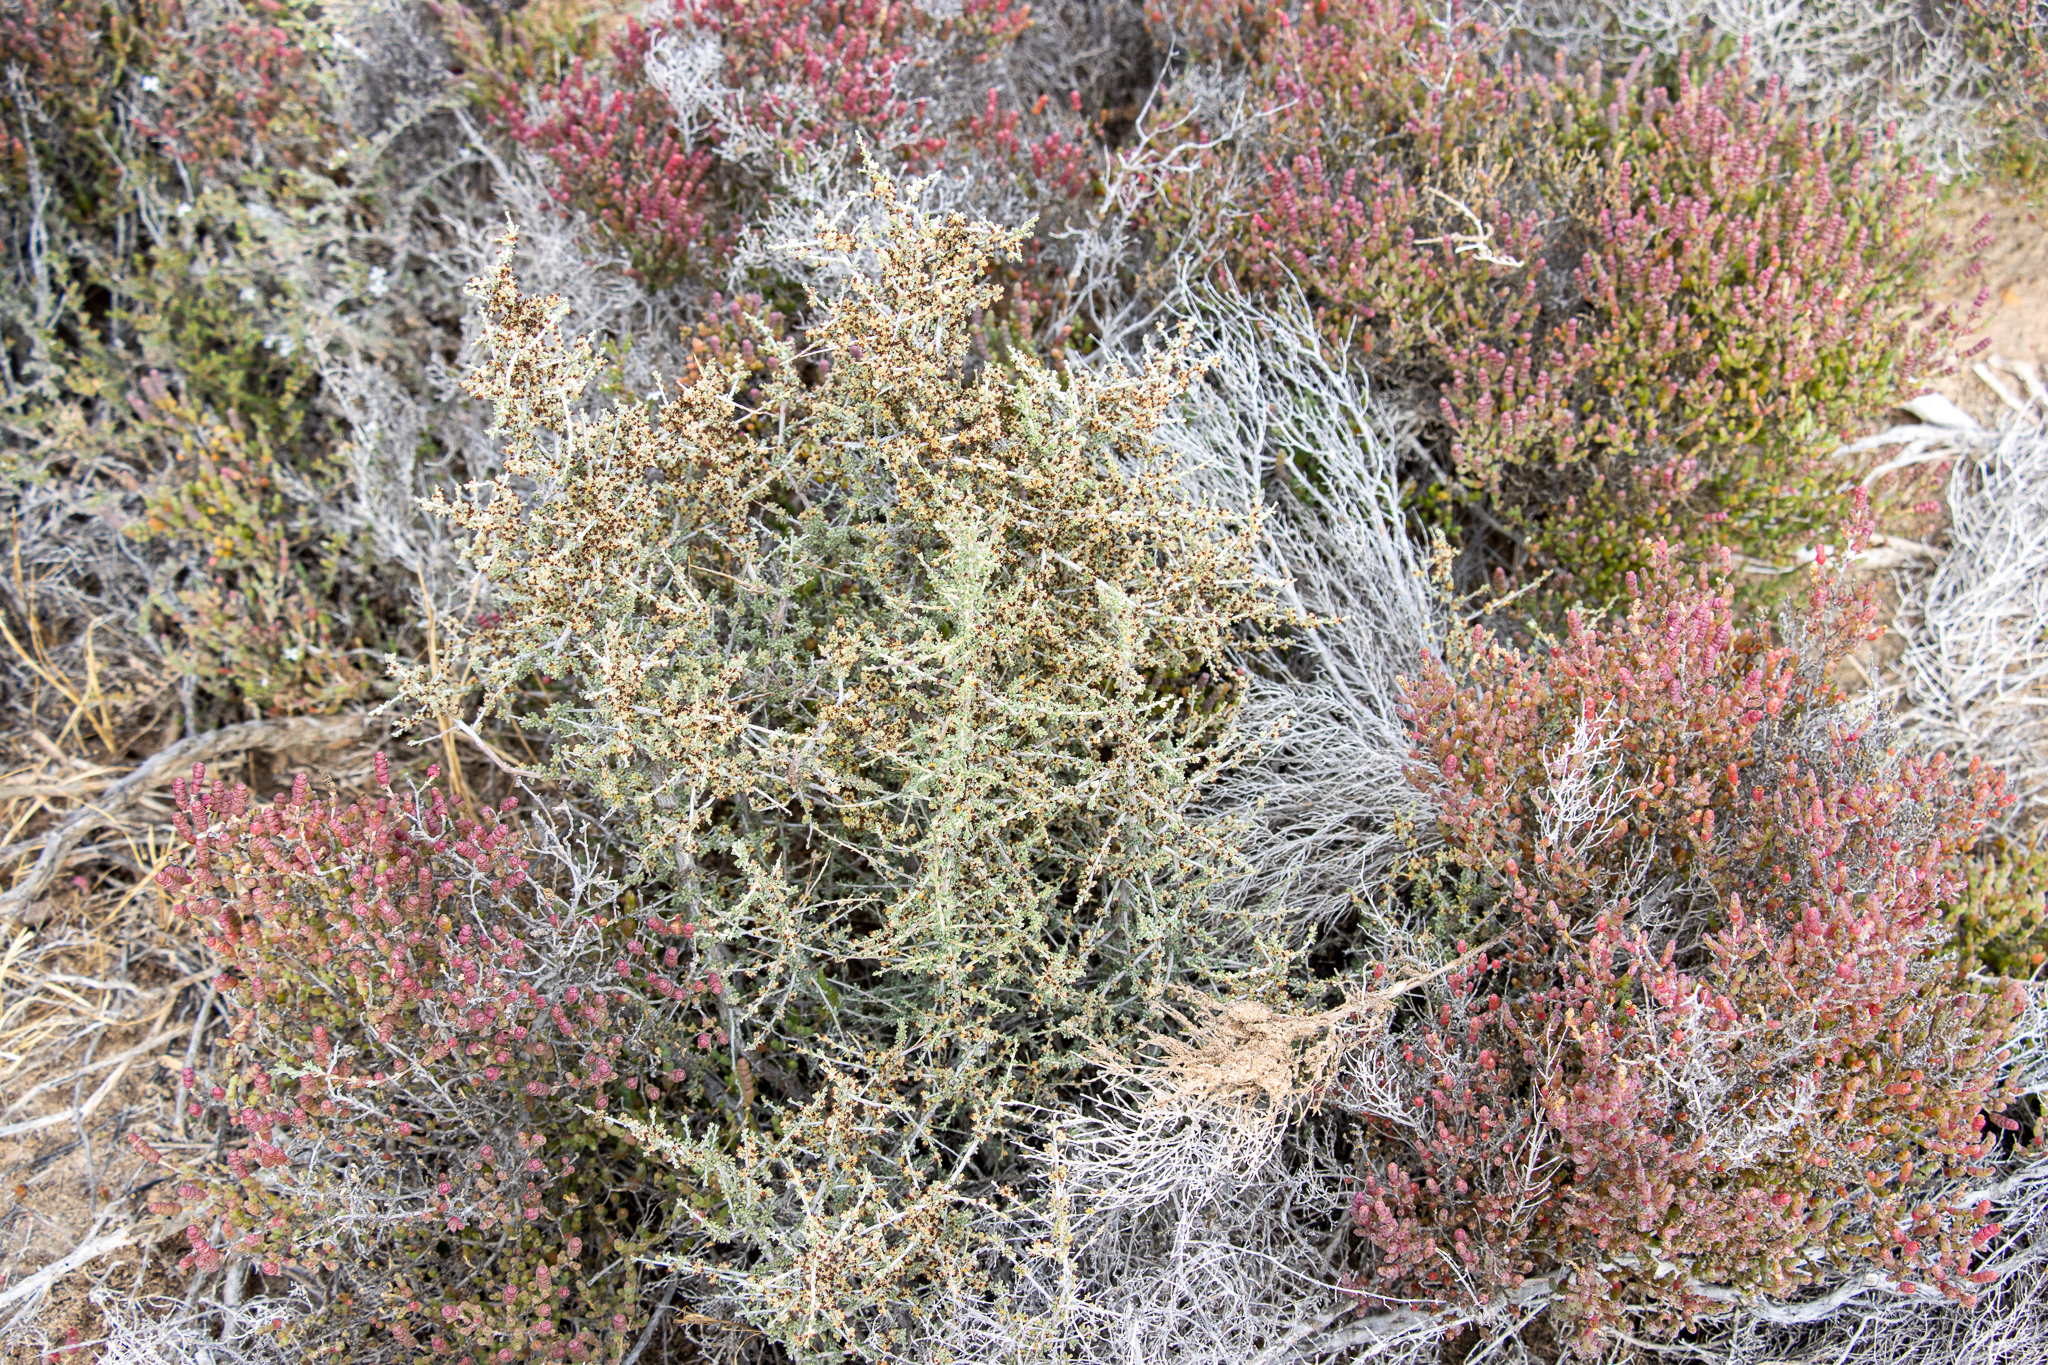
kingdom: Plantae
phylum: Tracheophyta
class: Magnoliopsida
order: Malvales
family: Malvaceae
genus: Lawrencia
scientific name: Lawrencia squamata
